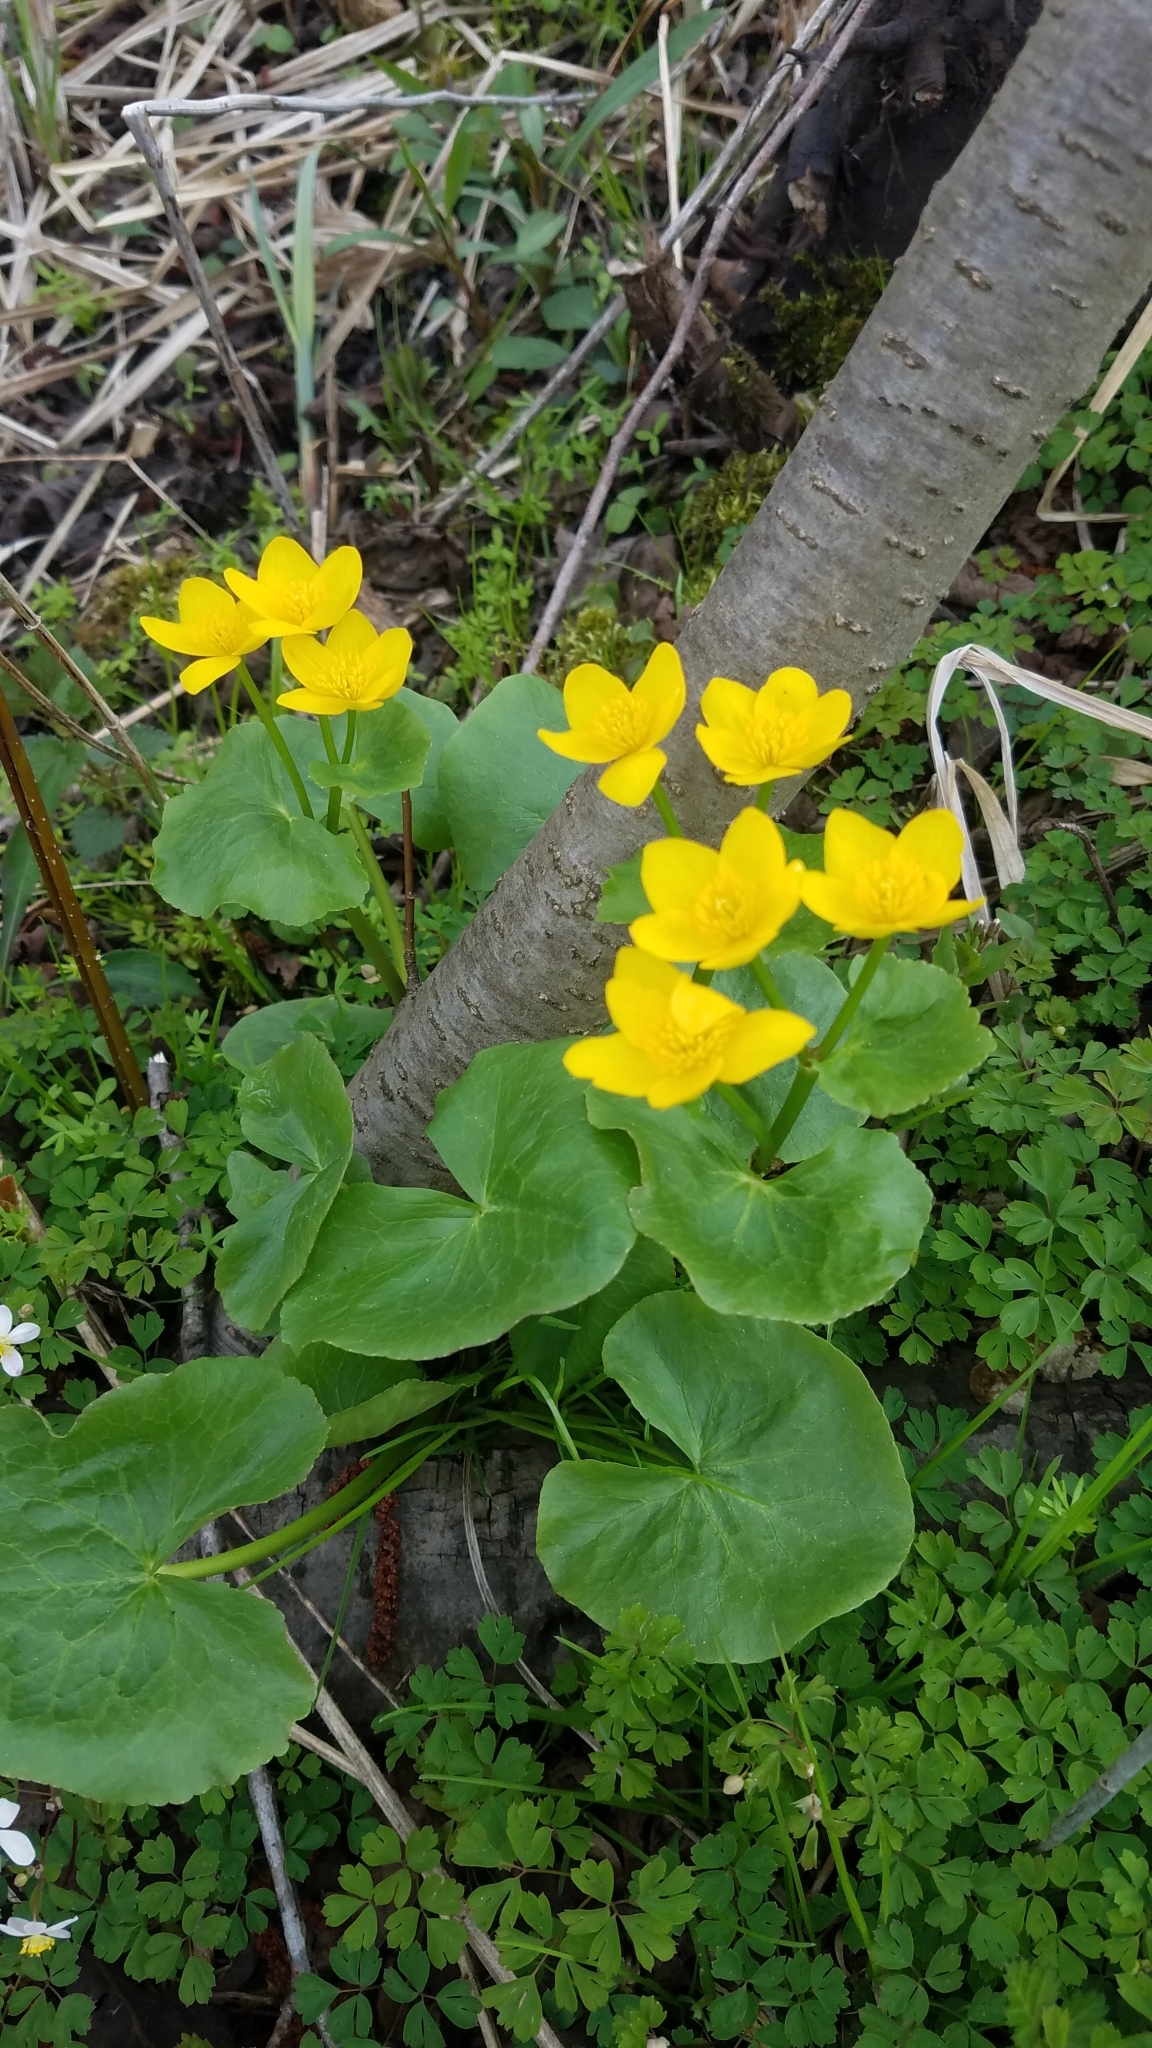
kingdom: Plantae
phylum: Tracheophyta
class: Magnoliopsida
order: Ranunculales
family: Ranunculaceae
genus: Caltha
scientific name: Caltha palustris
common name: Marsh marigold
